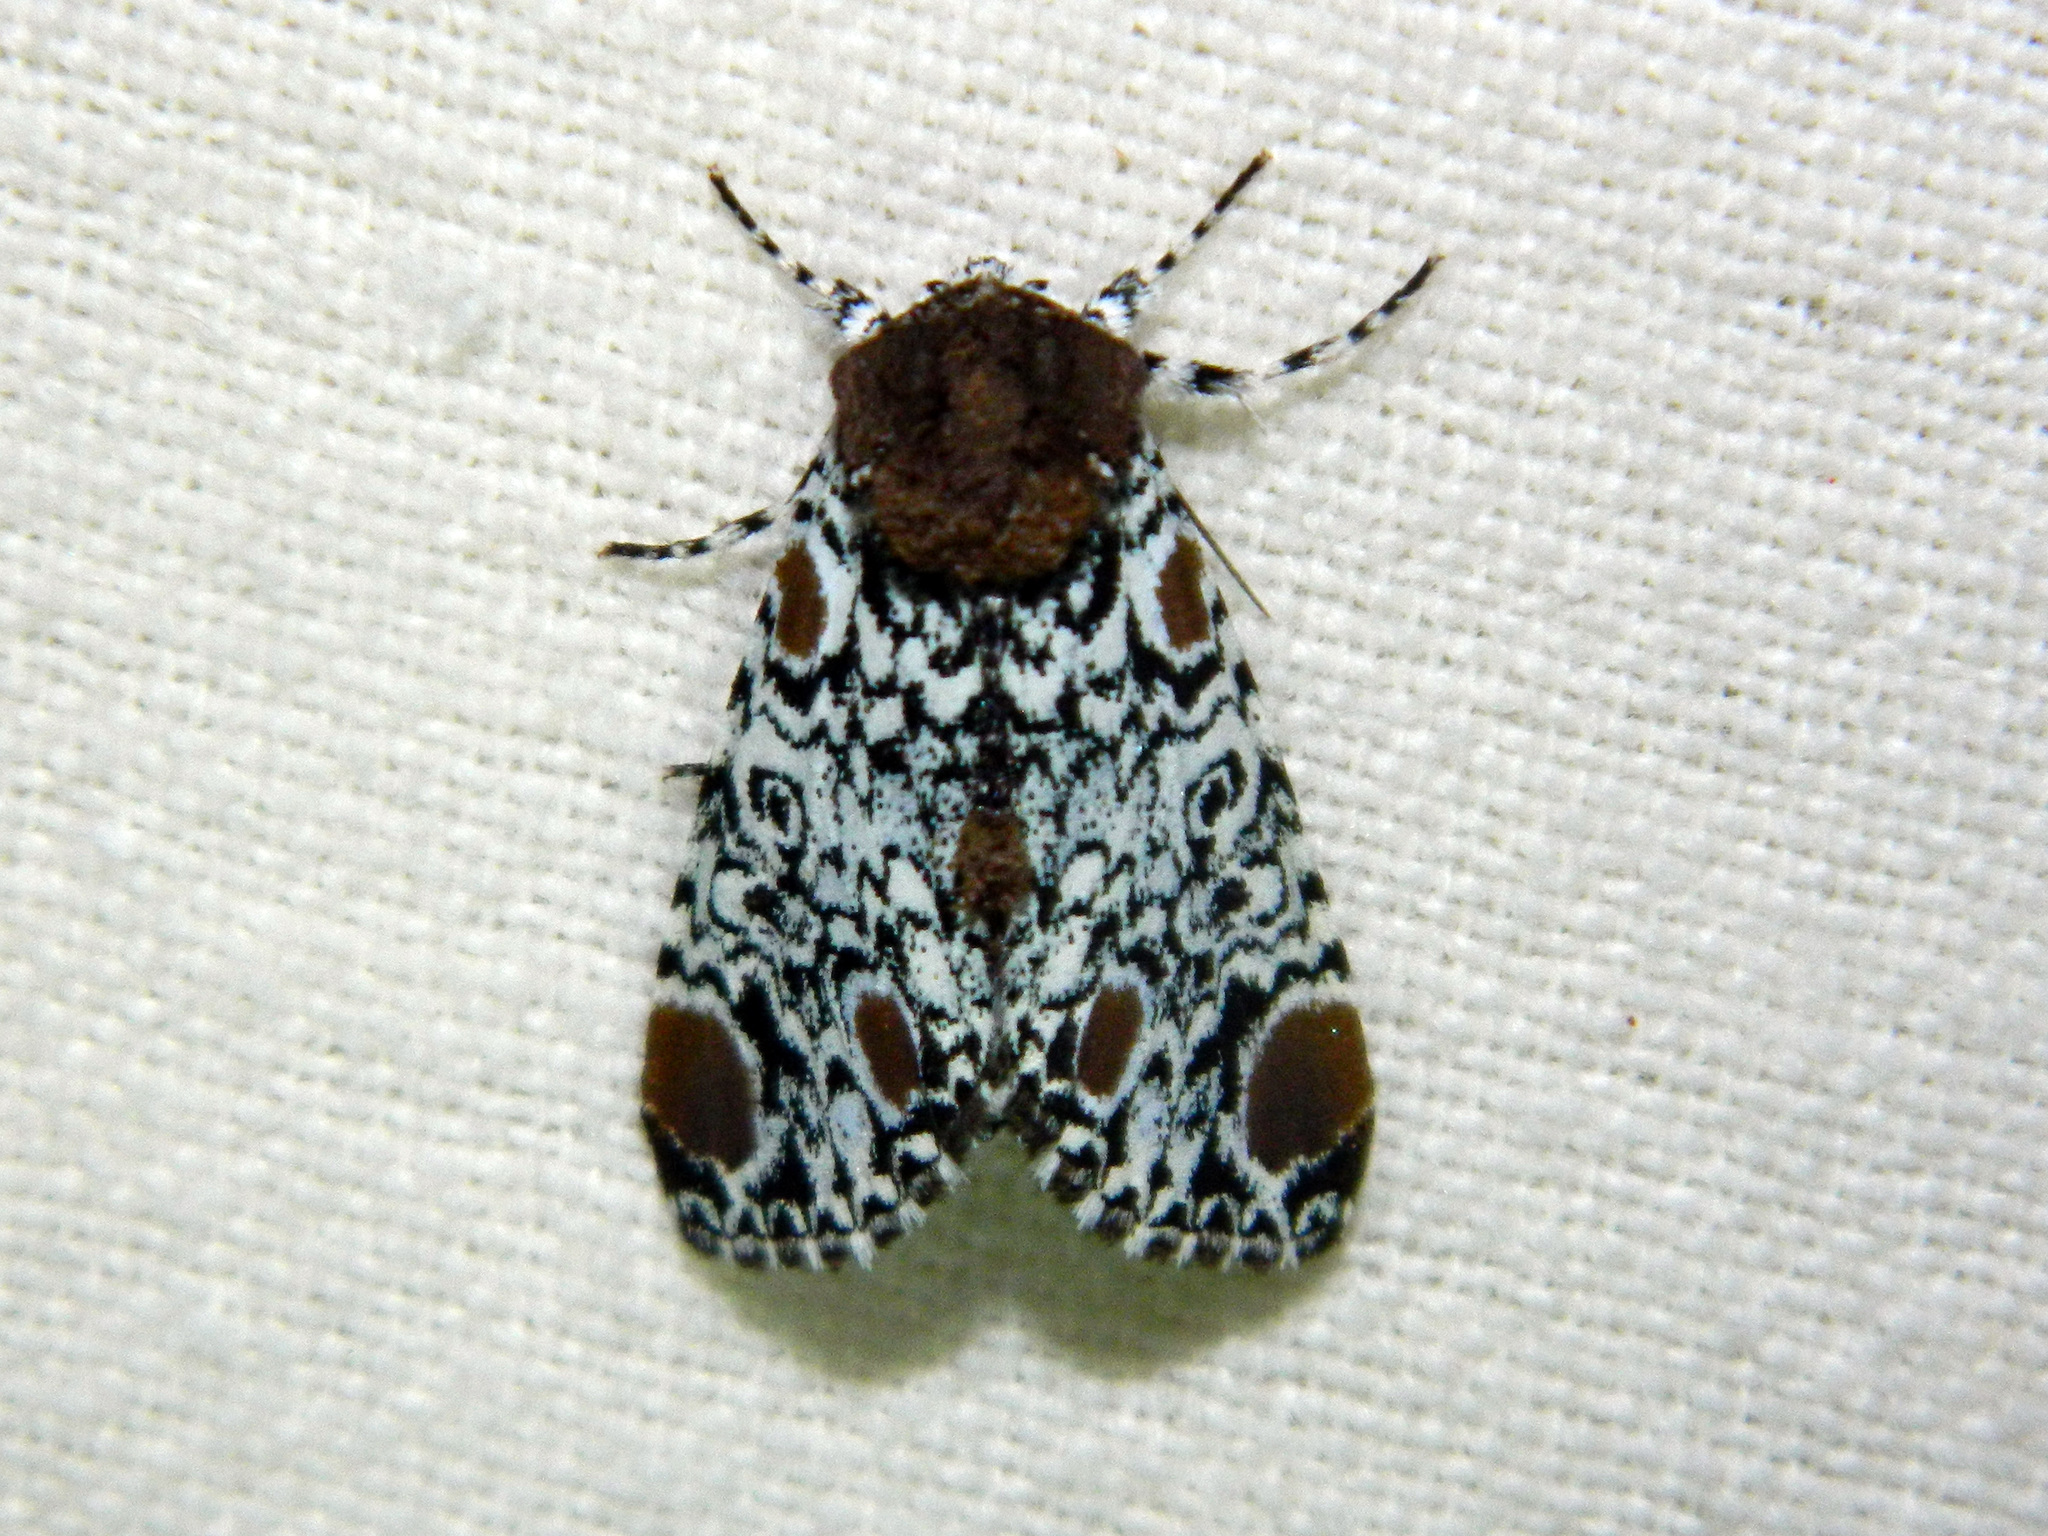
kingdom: Animalia
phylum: Arthropoda
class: Insecta
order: Lepidoptera
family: Noctuidae
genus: Harrisimemna
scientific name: Harrisimemna trisignata
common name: Harris threespot
